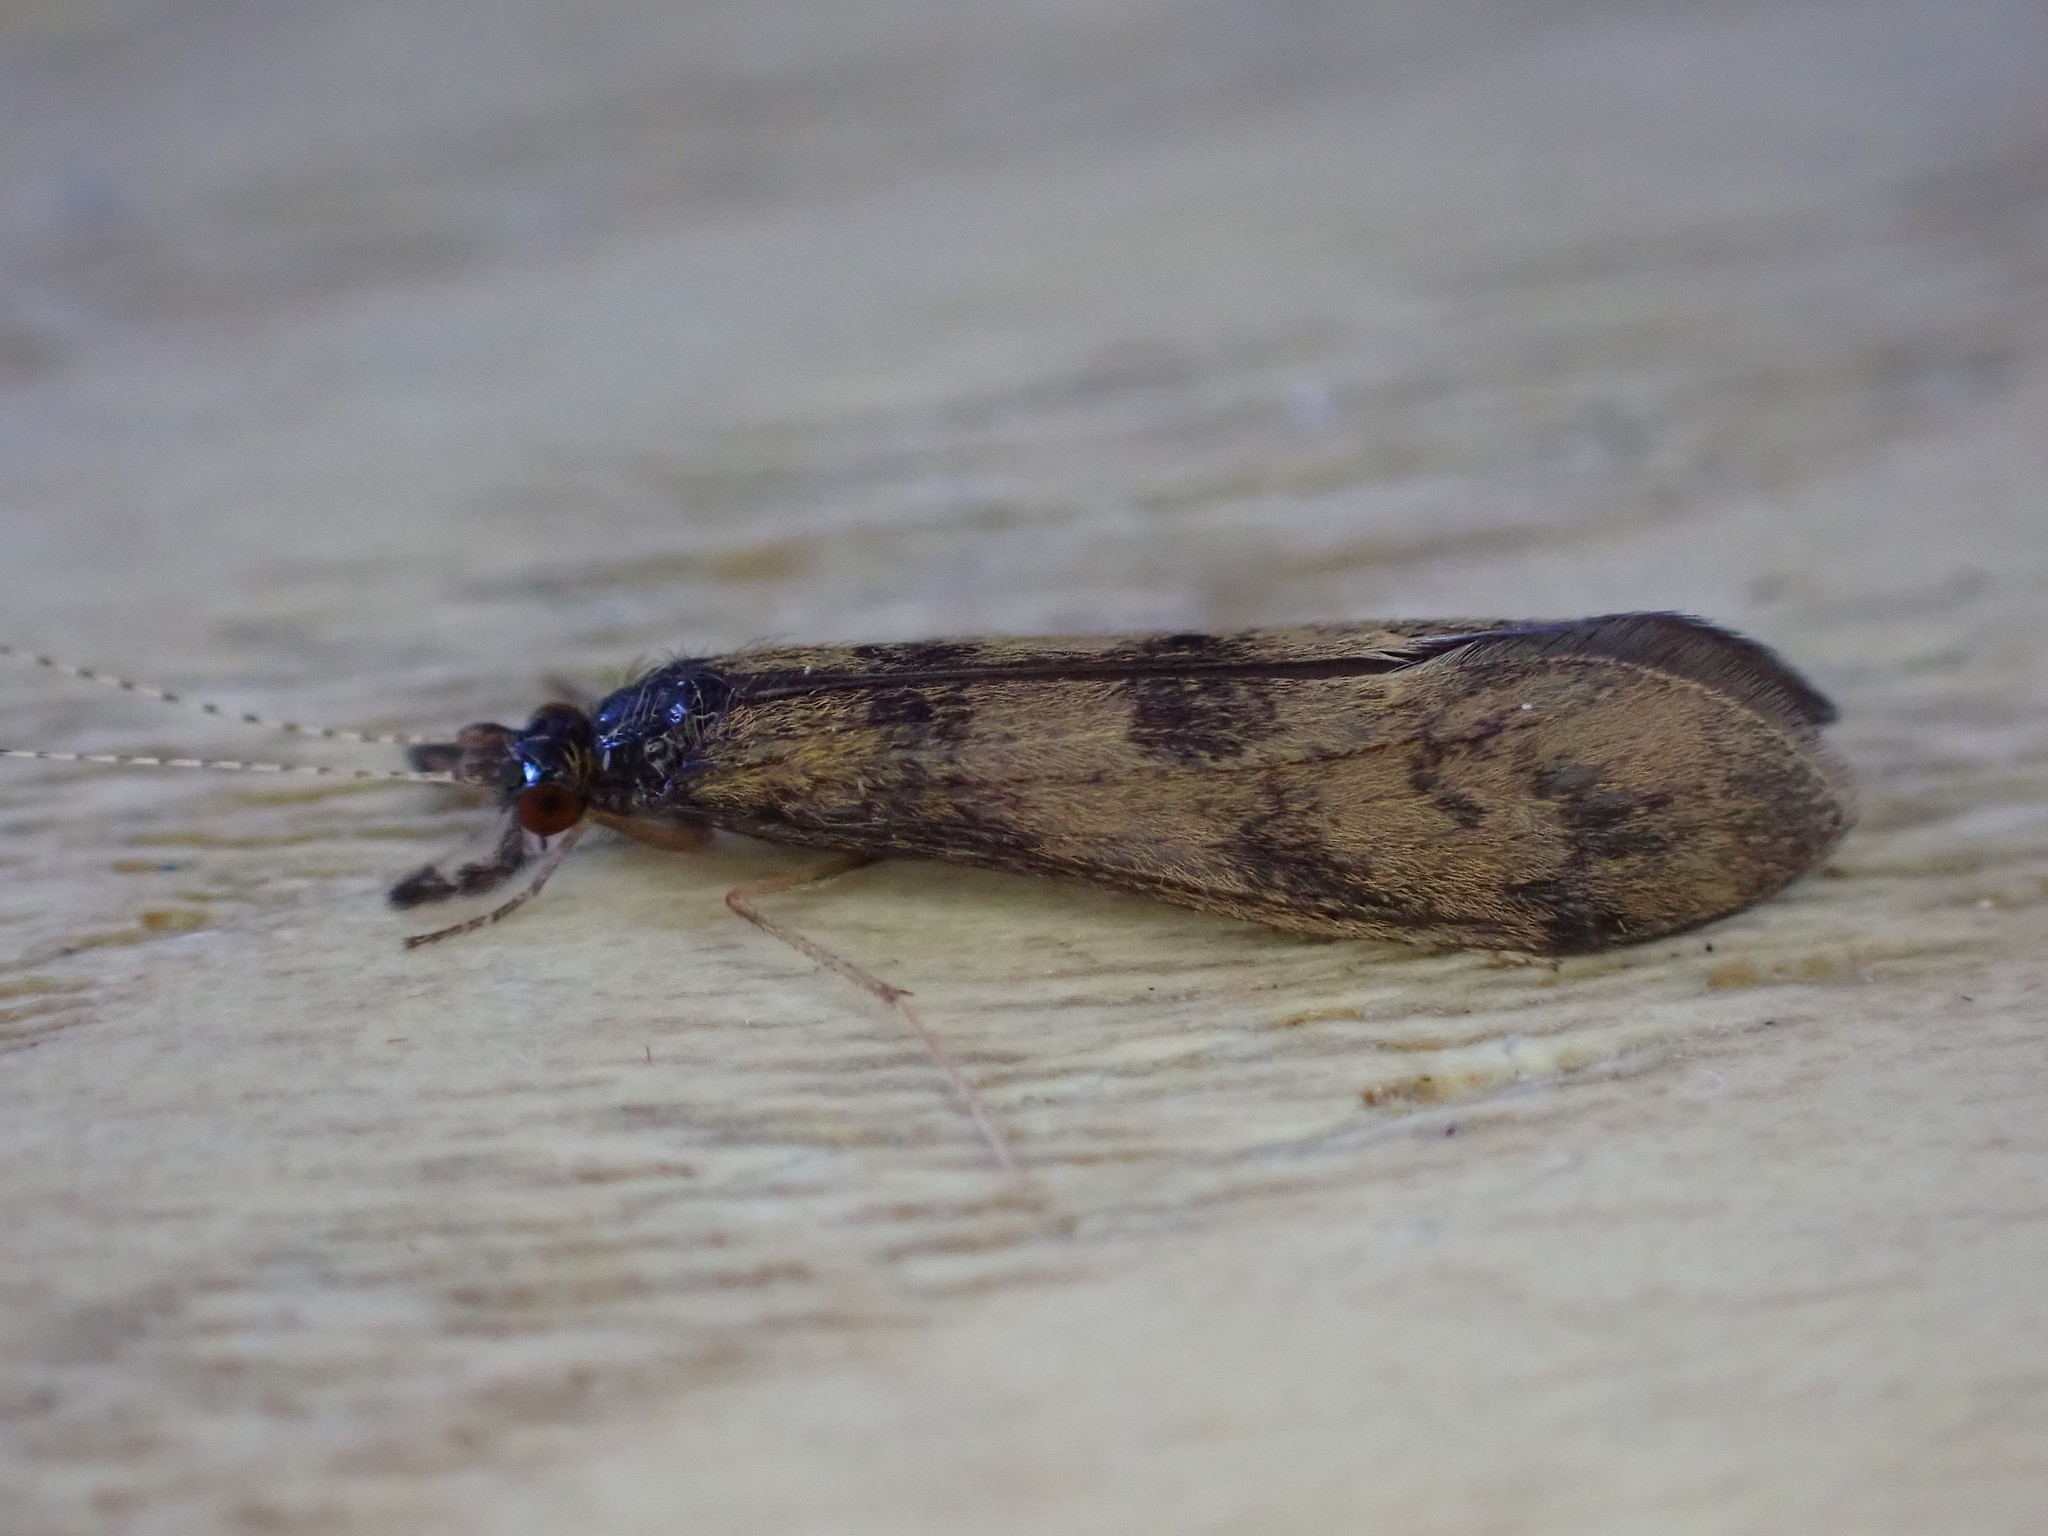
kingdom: Animalia
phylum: Arthropoda
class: Insecta
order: Trichoptera
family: Leptoceridae
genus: Mystacides
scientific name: Mystacides longicornis
